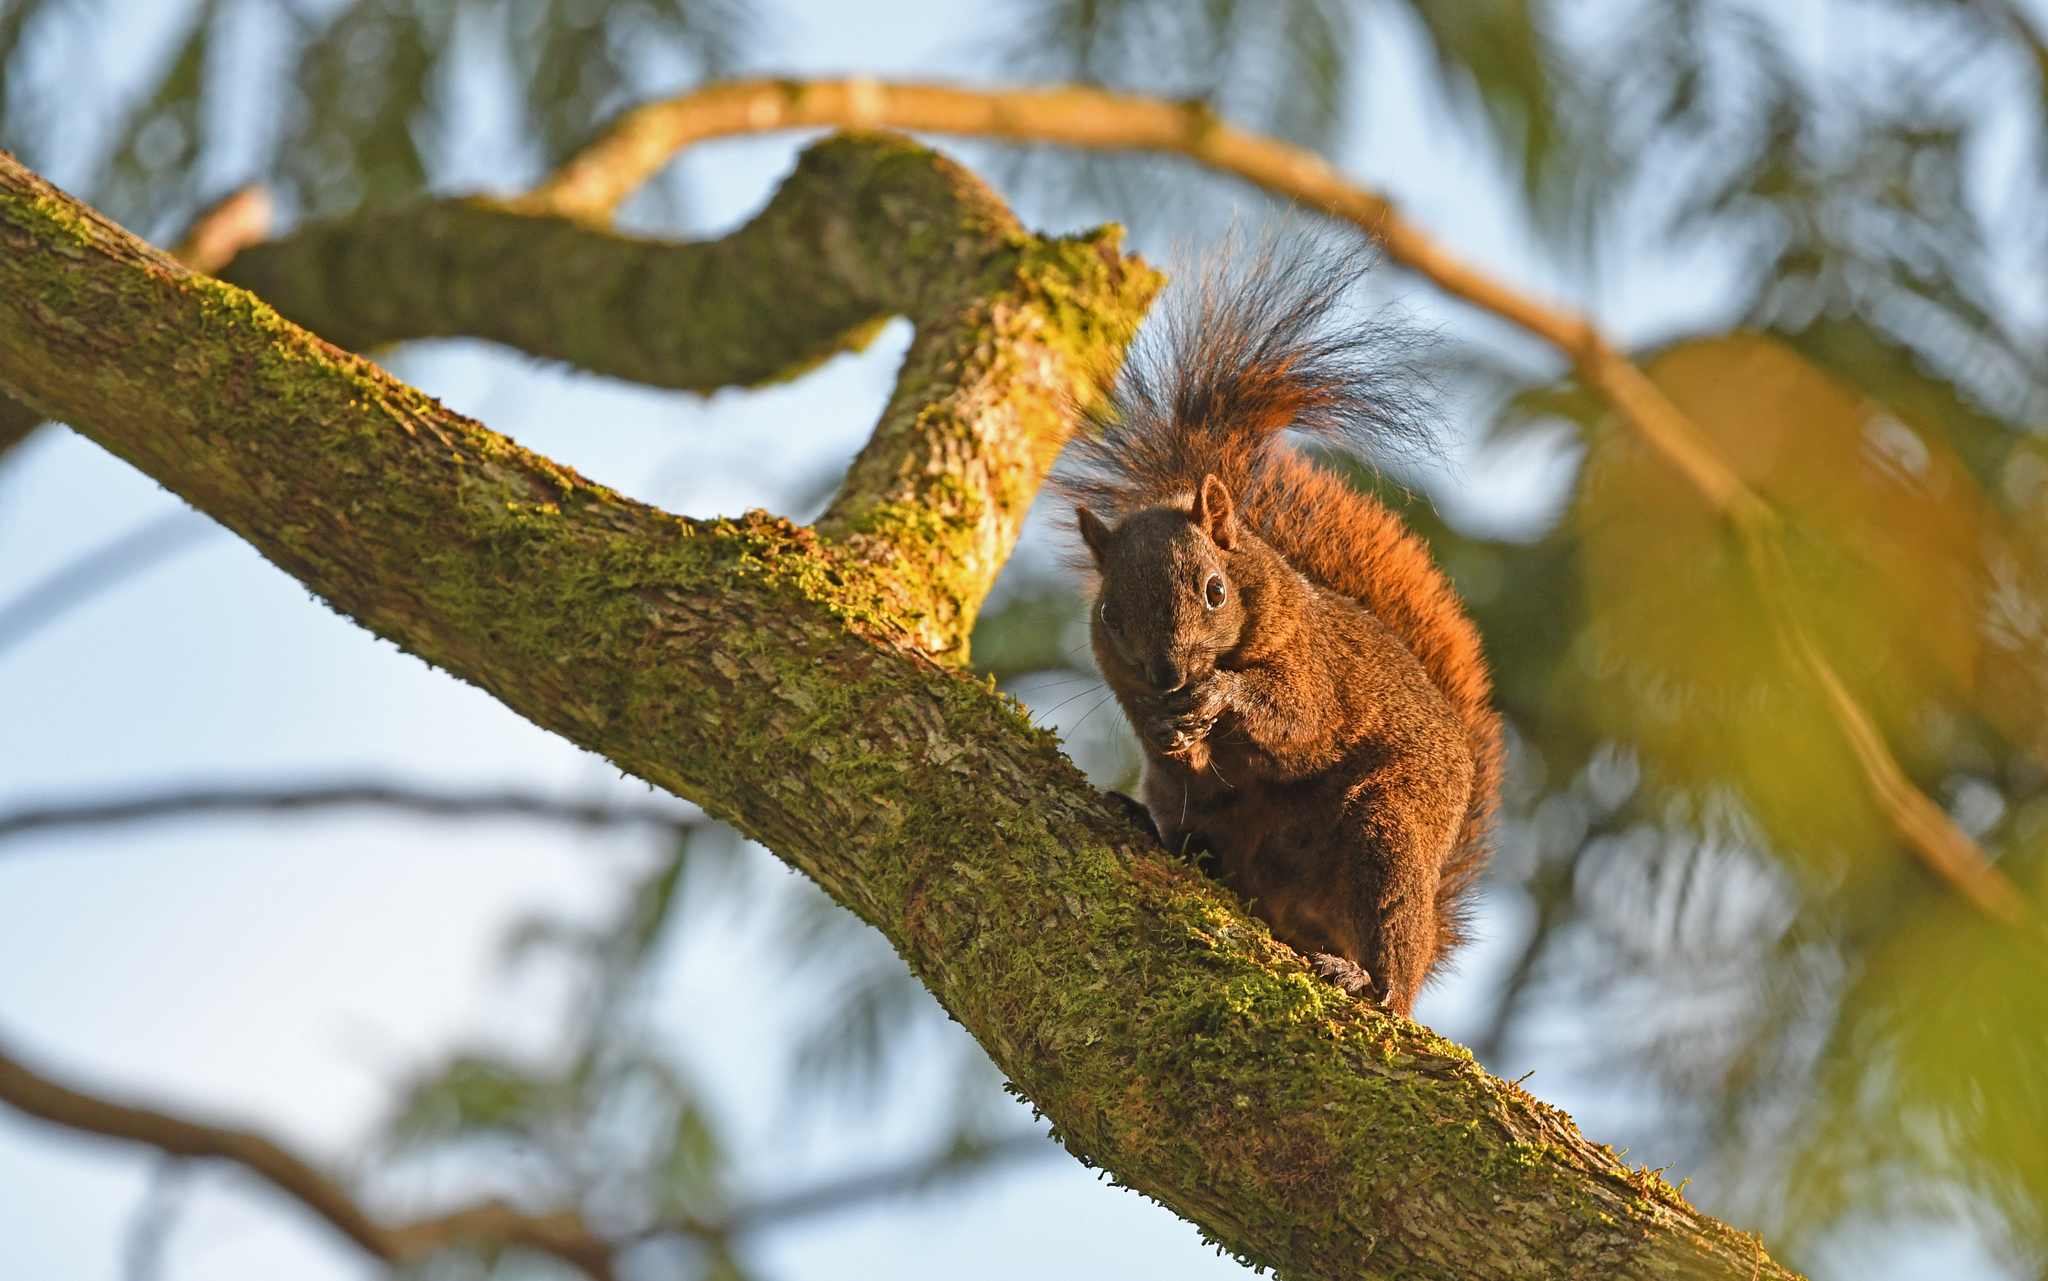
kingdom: Animalia
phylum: Chordata
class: Mammalia
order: Rodentia
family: Sciuridae
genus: Sciurus
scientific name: Sciurus granatensis
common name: Red-tailed squirrel
